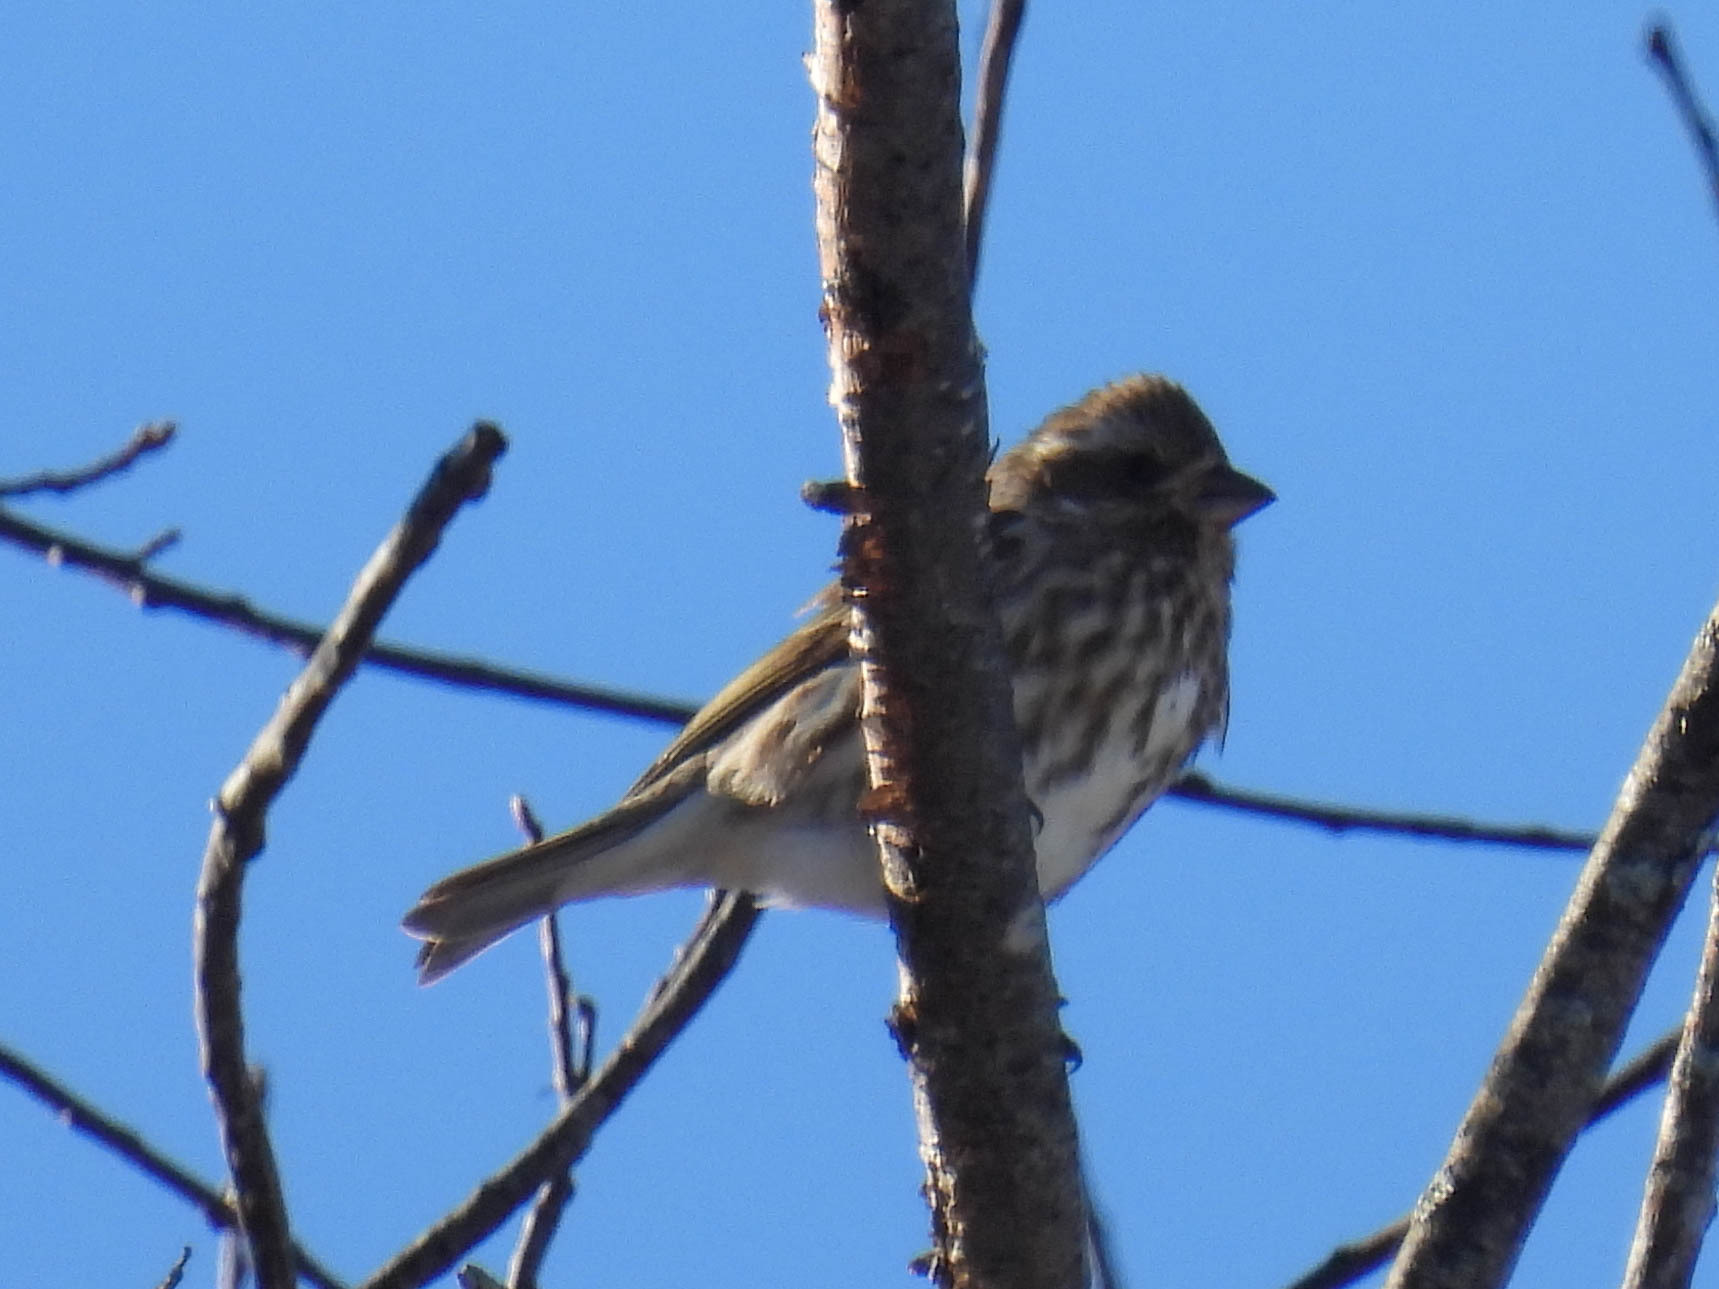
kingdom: Animalia
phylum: Chordata
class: Aves
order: Passeriformes
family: Fringillidae
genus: Haemorhous
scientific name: Haemorhous purpureus
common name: Purple finch
